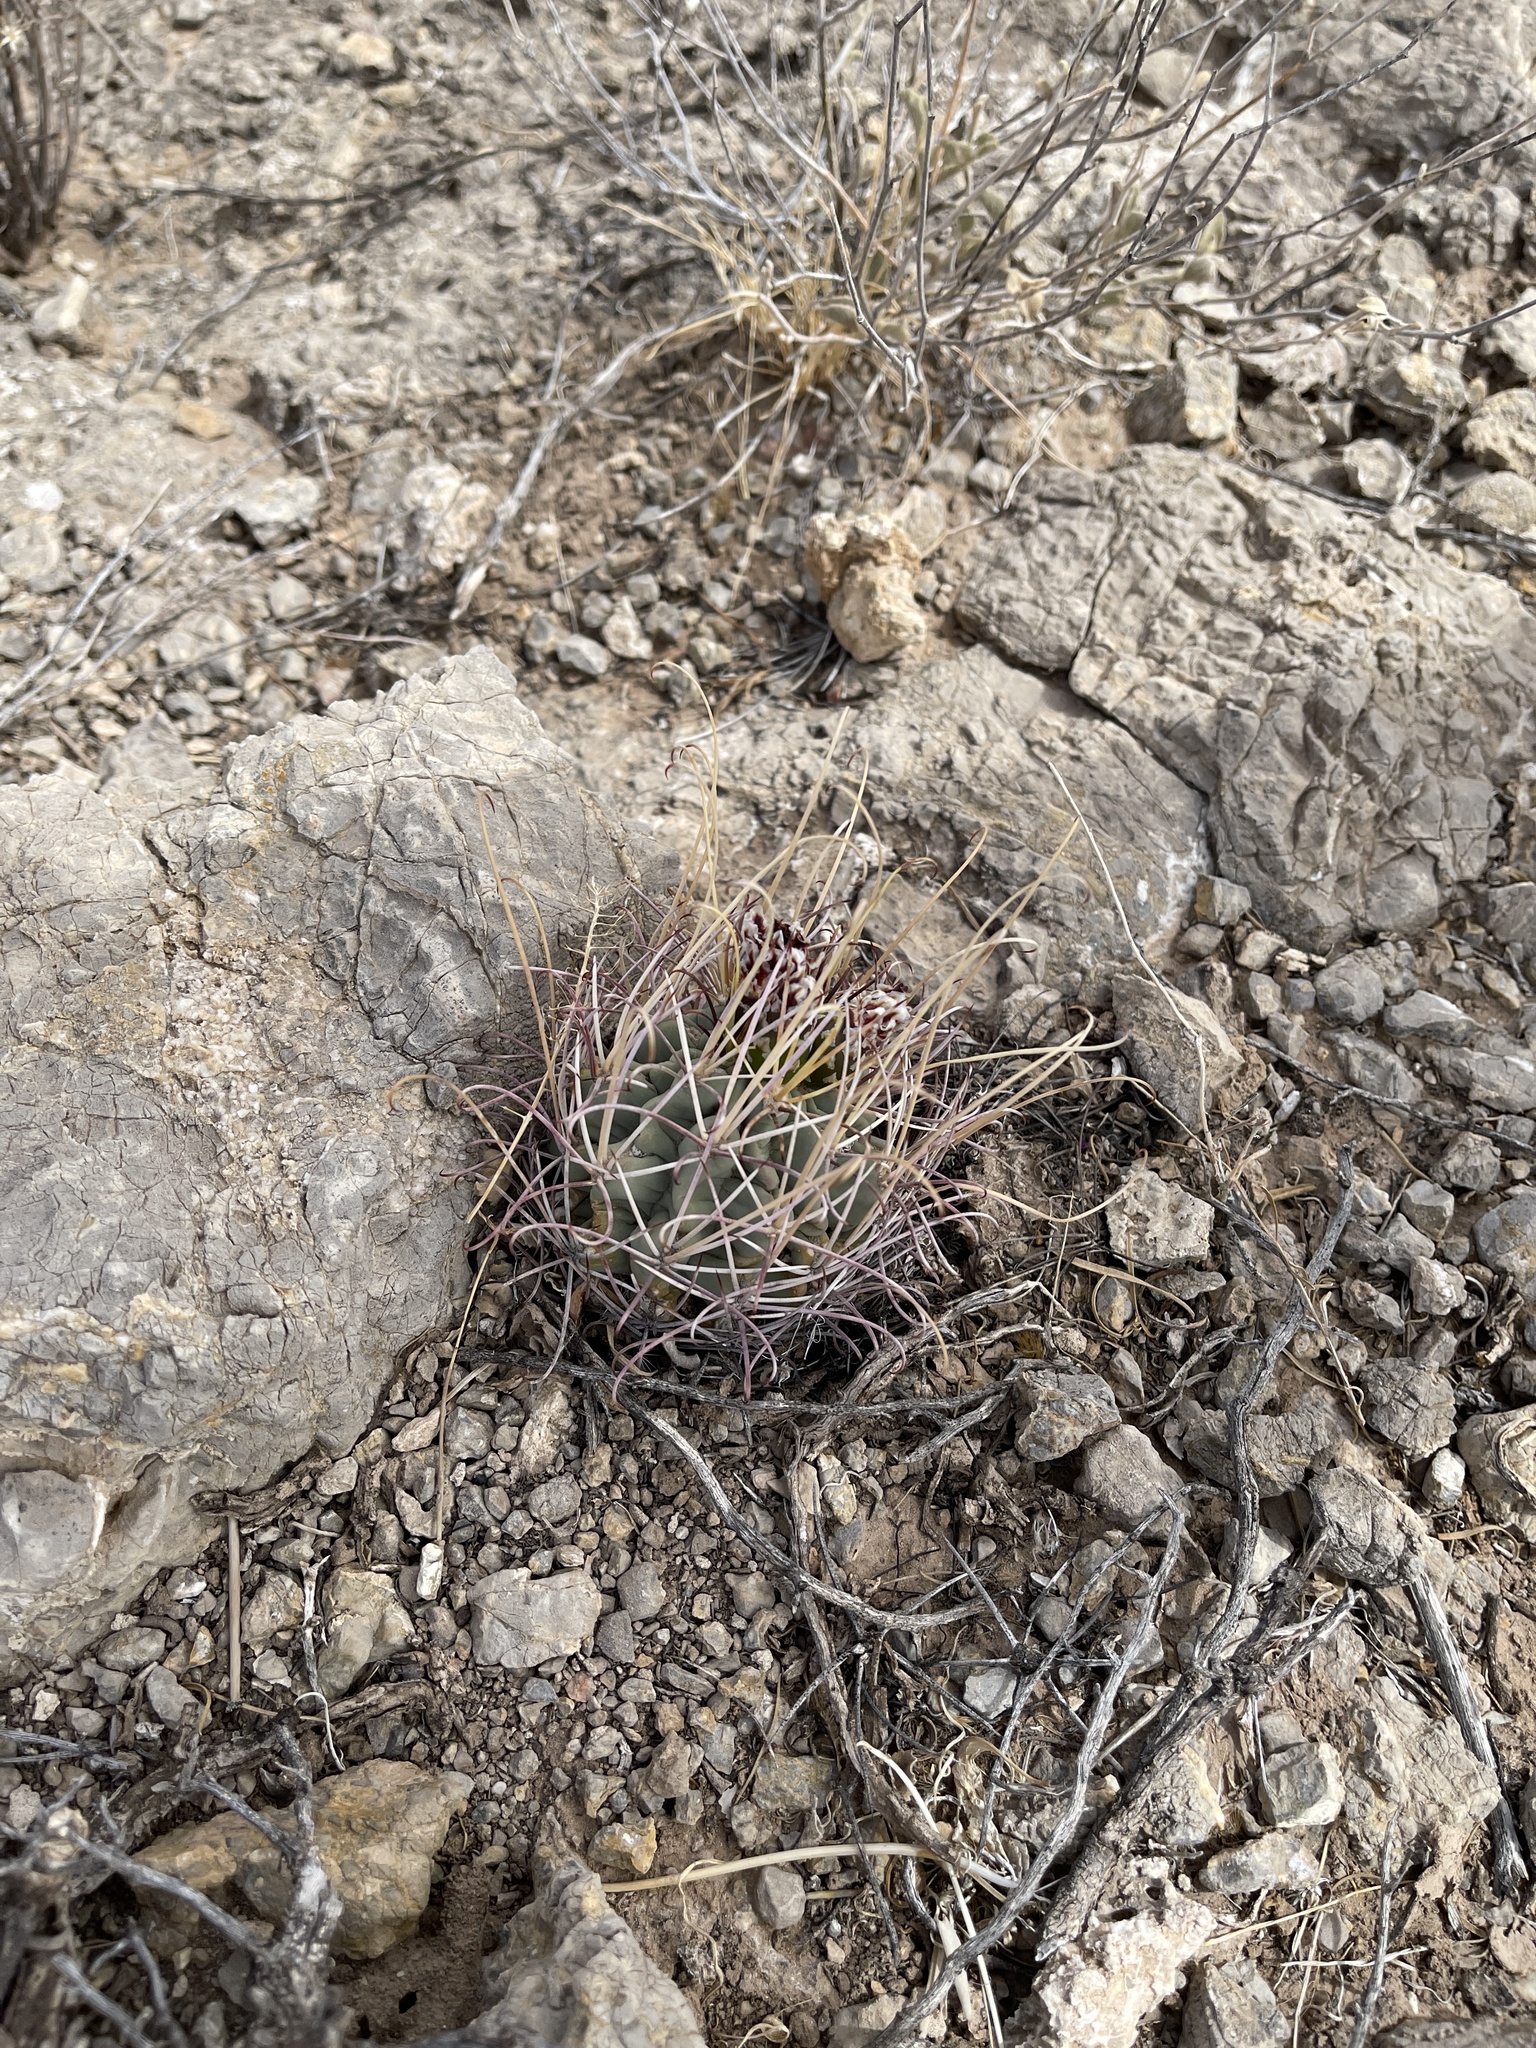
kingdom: Plantae
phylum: Tracheophyta
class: Magnoliopsida
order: Caryophyllales
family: Cactaceae
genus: Ferocactus
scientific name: Ferocactus uncinatus
